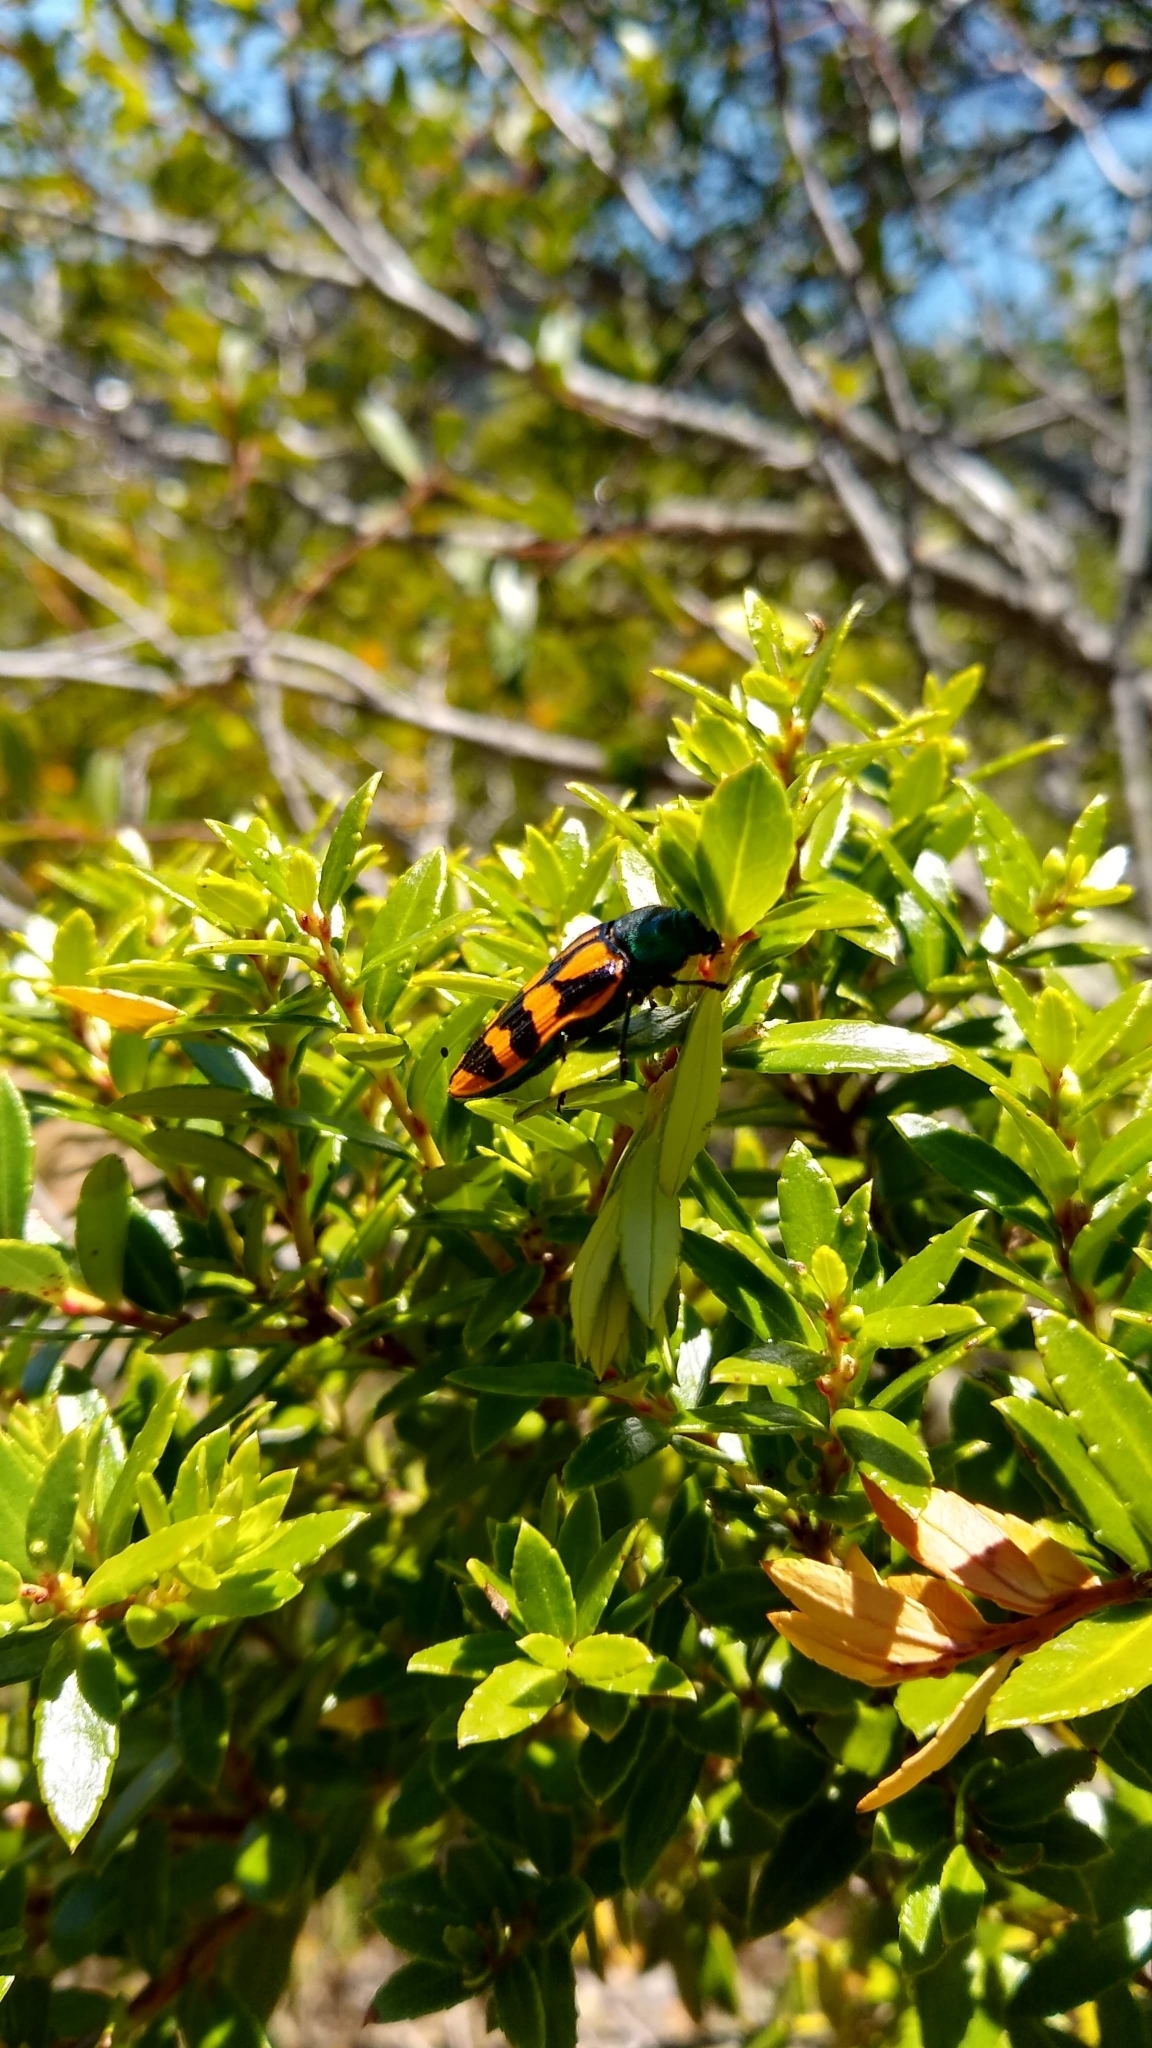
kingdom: Animalia
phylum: Arthropoda
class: Insecta
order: Coleoptera
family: Buprestidae
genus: Conognatha
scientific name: Conognatha viridiventris
